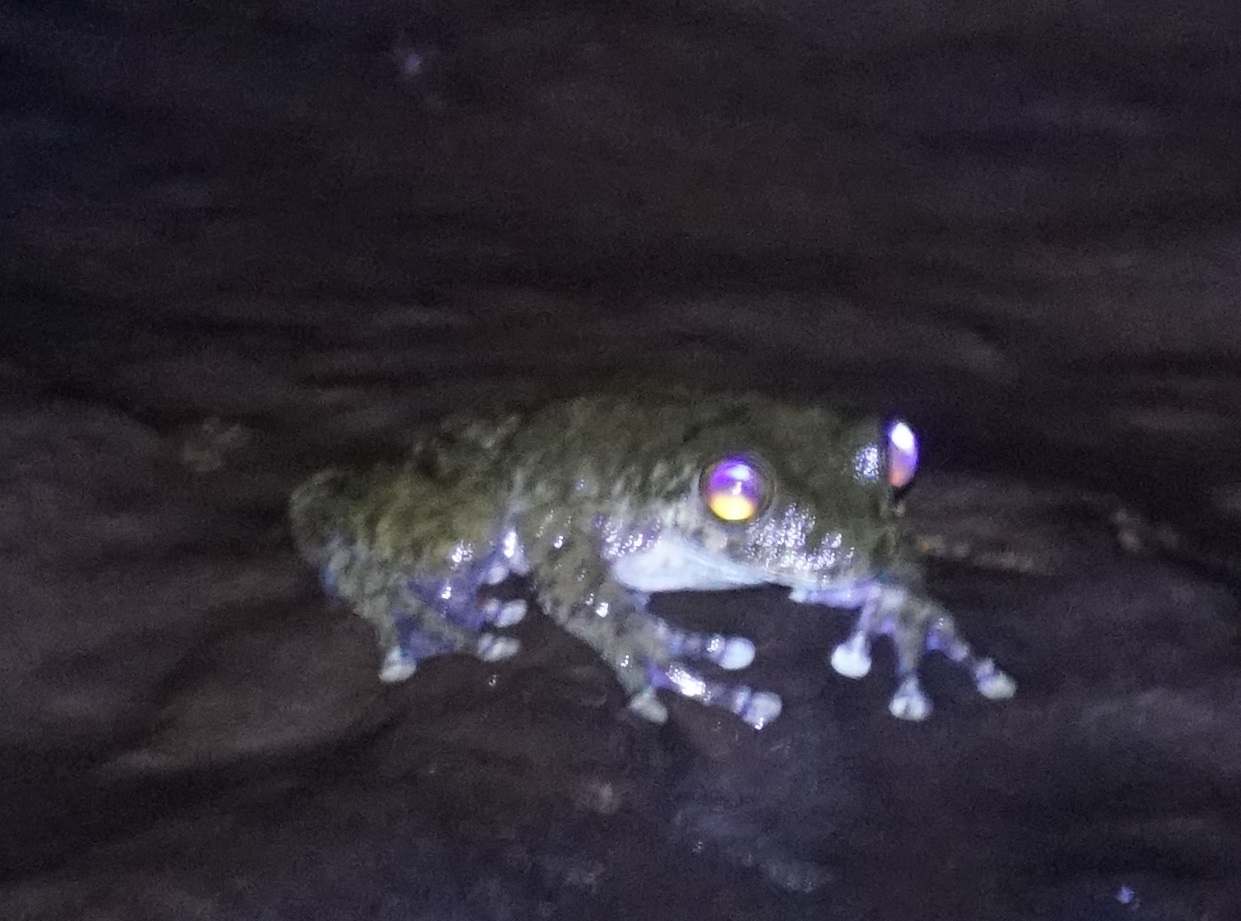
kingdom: Animalia
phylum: Chordata
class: Amphibia
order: Anura
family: Pelodryadidae
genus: Ranoidea
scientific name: Ranoidea nannotis
